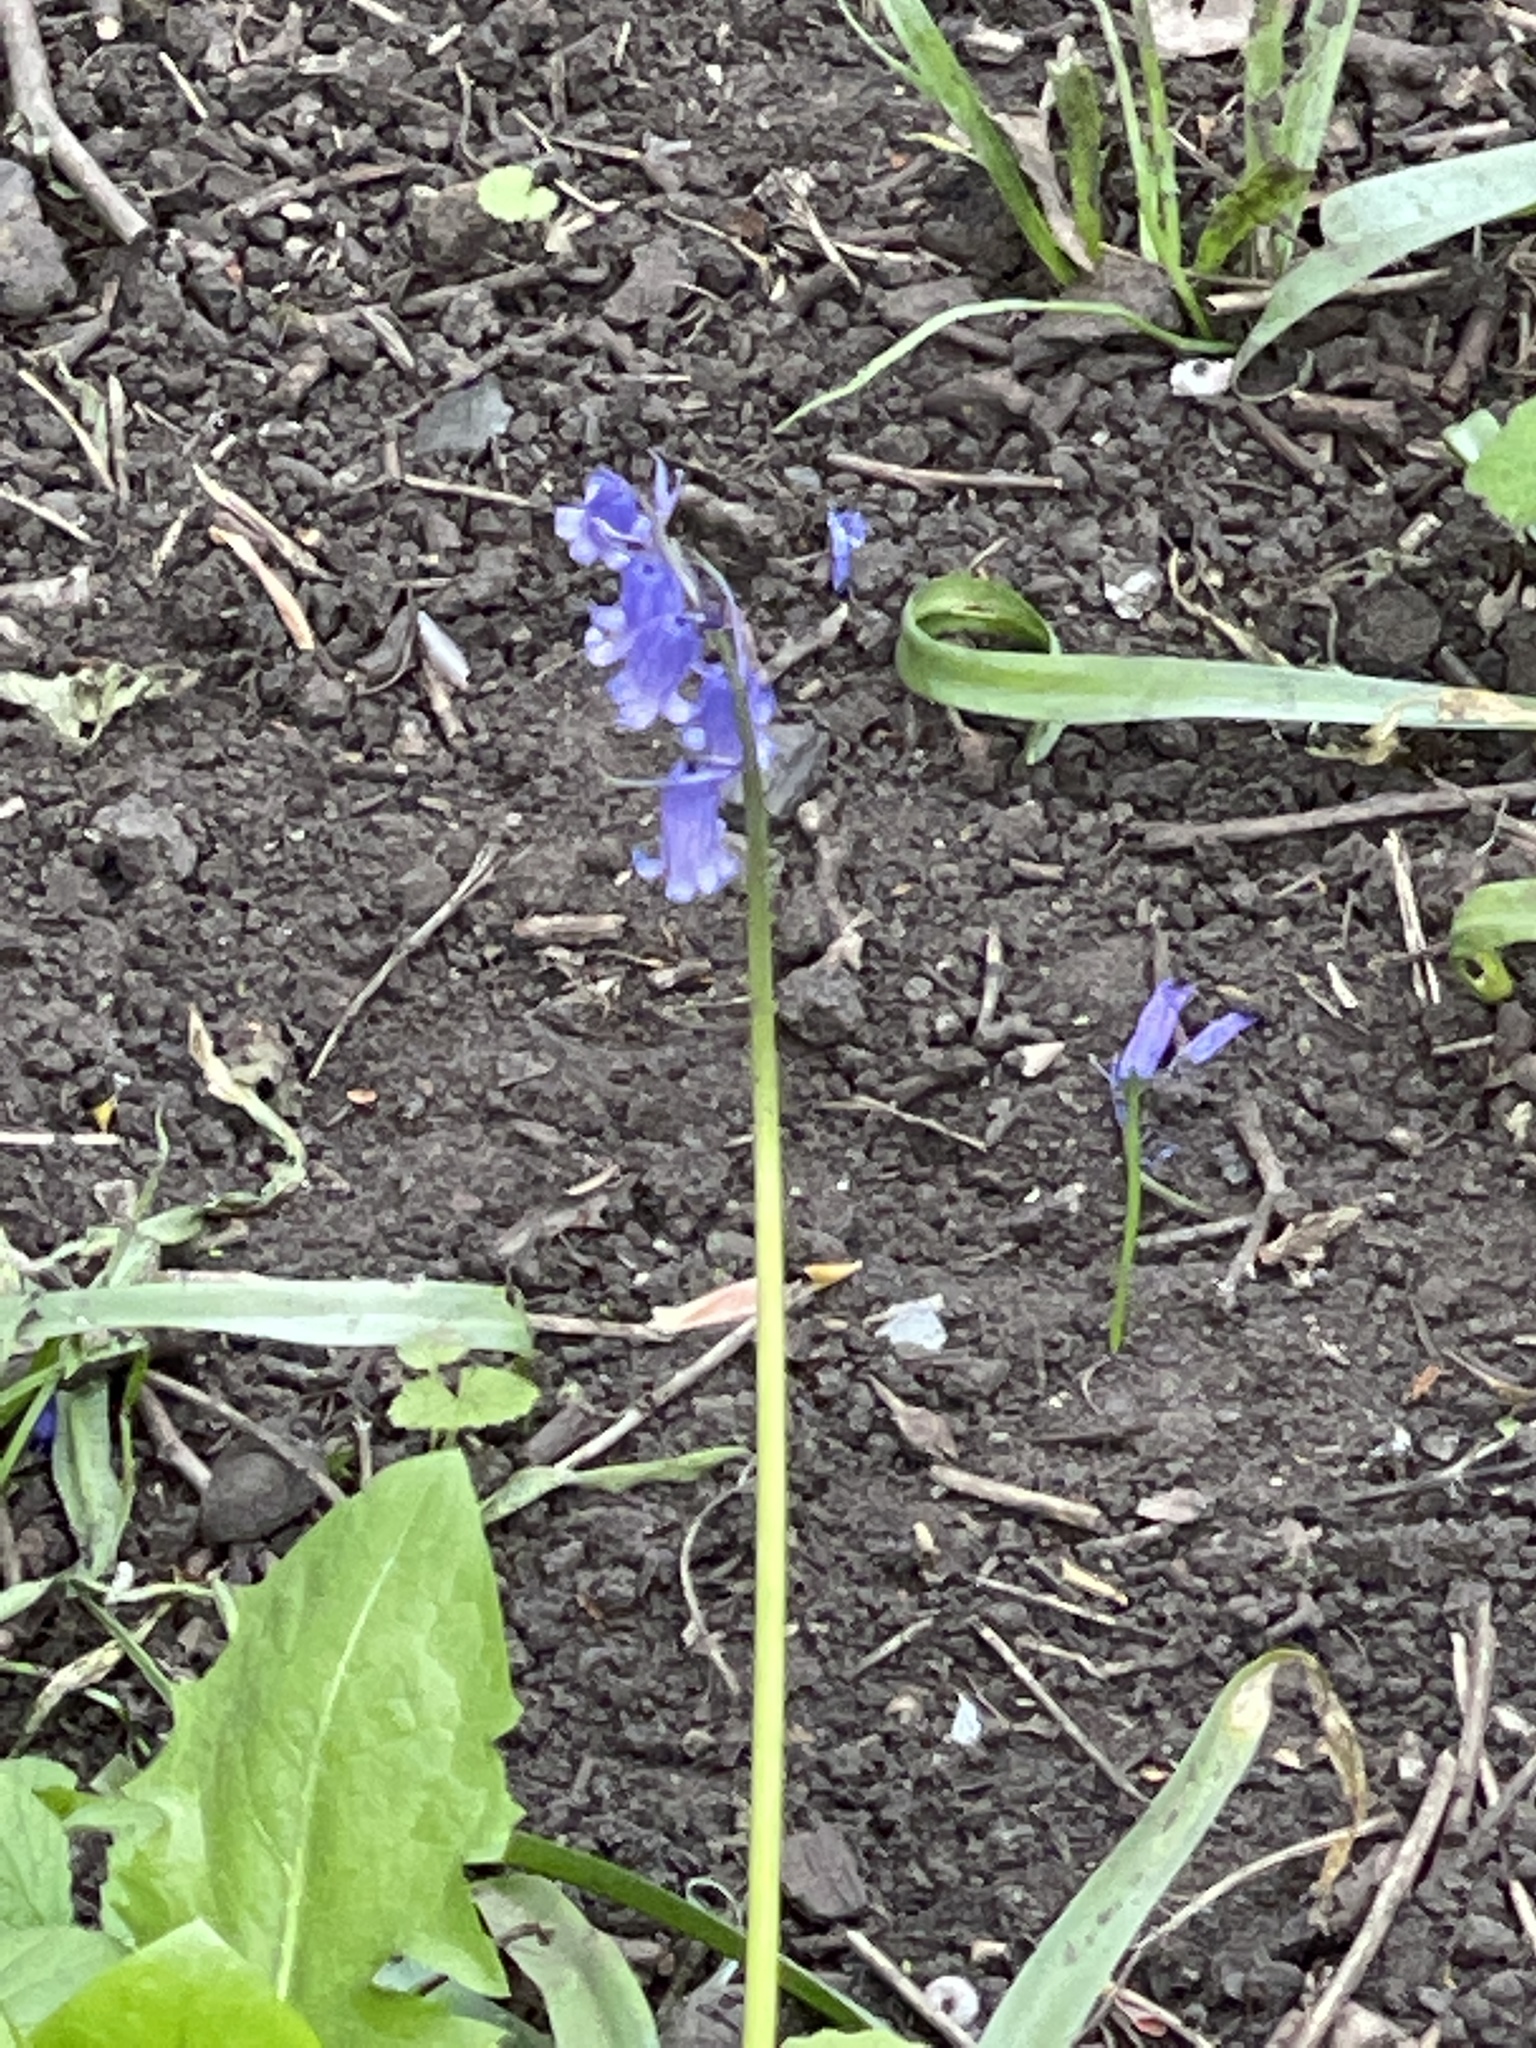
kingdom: Plantae
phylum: Tracheophyta
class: Liliopsida
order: Asparagales
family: Asparagaceae
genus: Hyacinthoides
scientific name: Hyacinthoides non-scripta
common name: Bluebell
